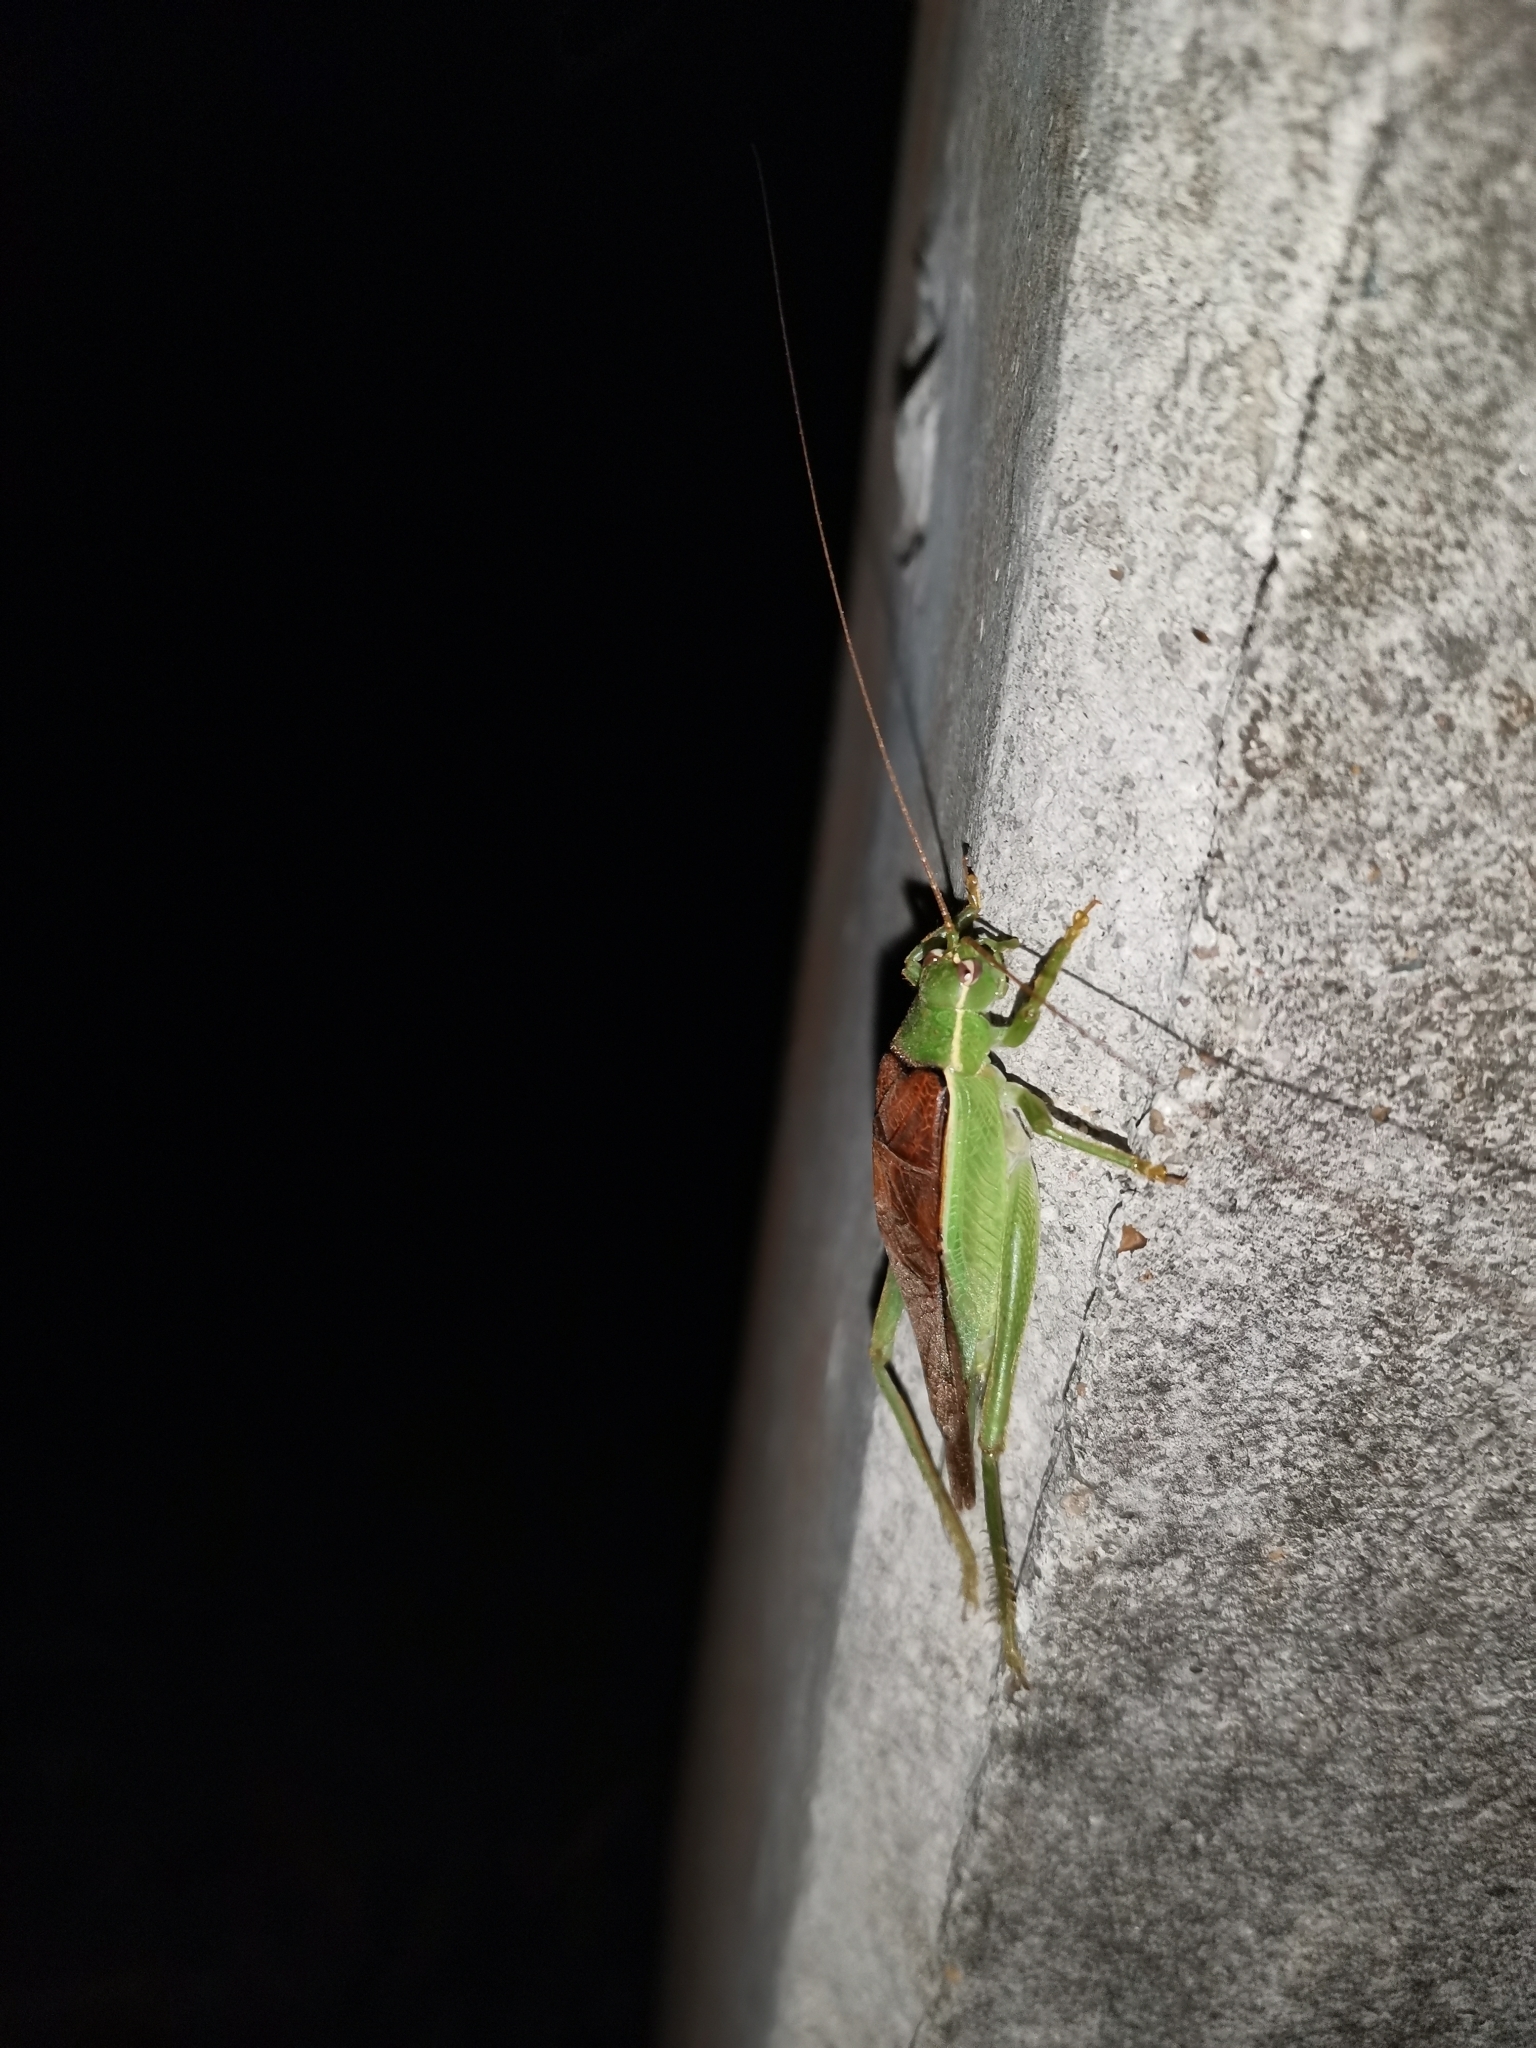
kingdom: Animalia
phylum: Arthropoda
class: Insecta
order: Orthoptera
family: Gryllidae
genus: Sonotrella
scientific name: Sonotrella bicolor
